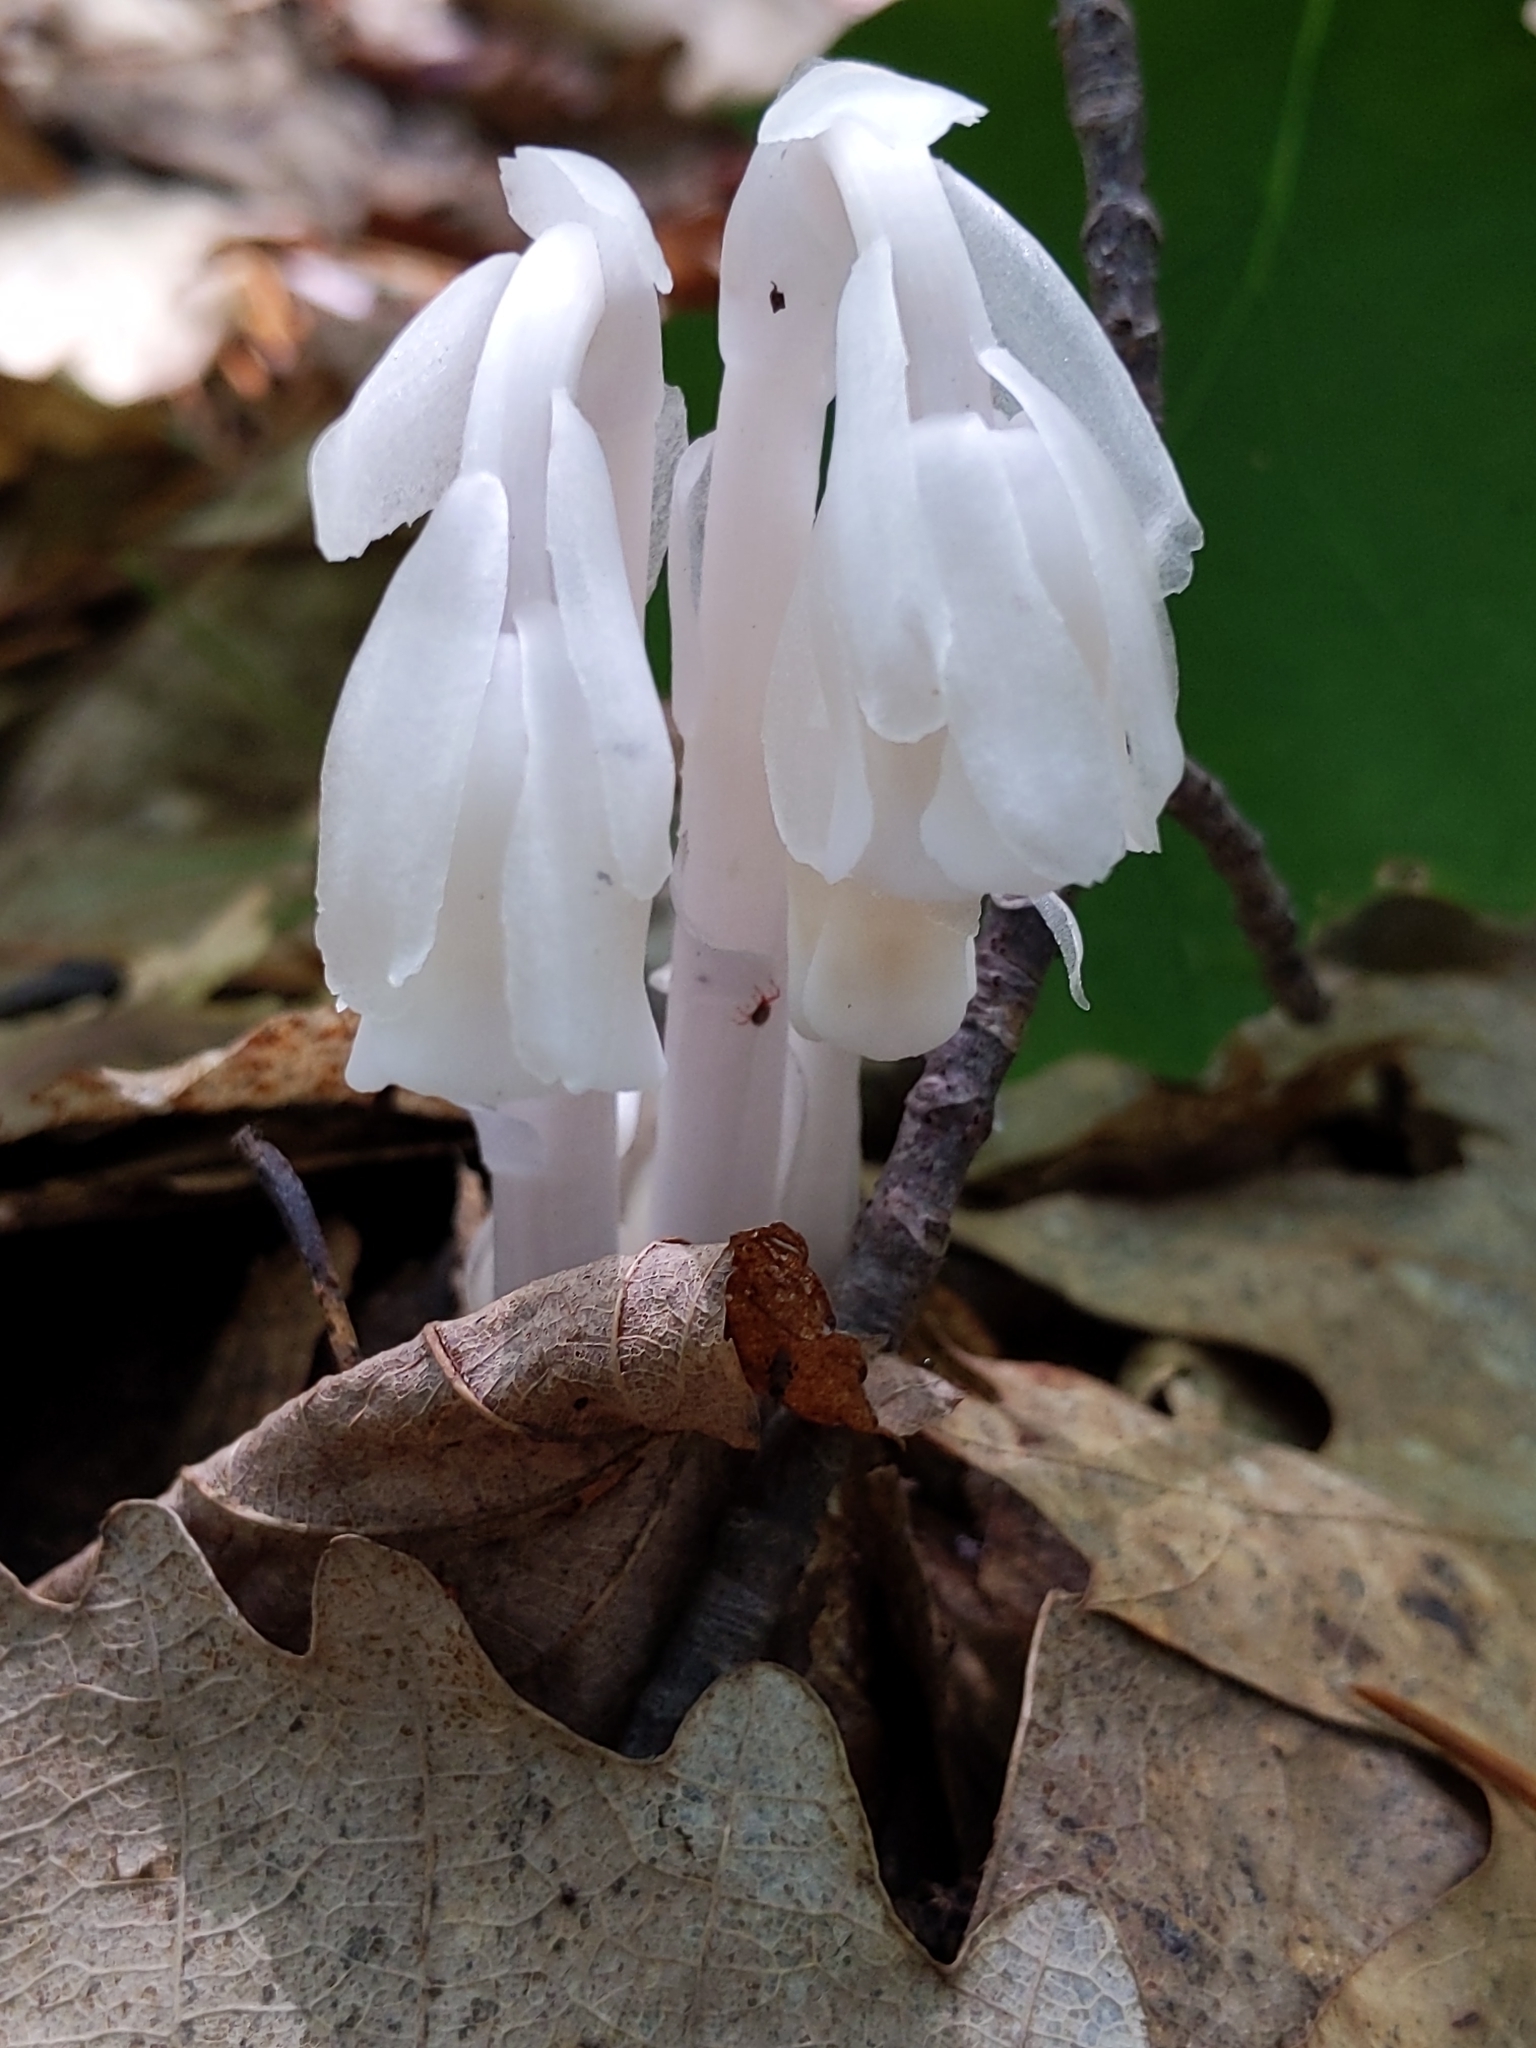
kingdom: Plantae
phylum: Tracheophyta
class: Magnoliopsida
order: Ericales
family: Ericaceae
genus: Monotropa
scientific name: Monotropa uniflora
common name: Convulsion root
